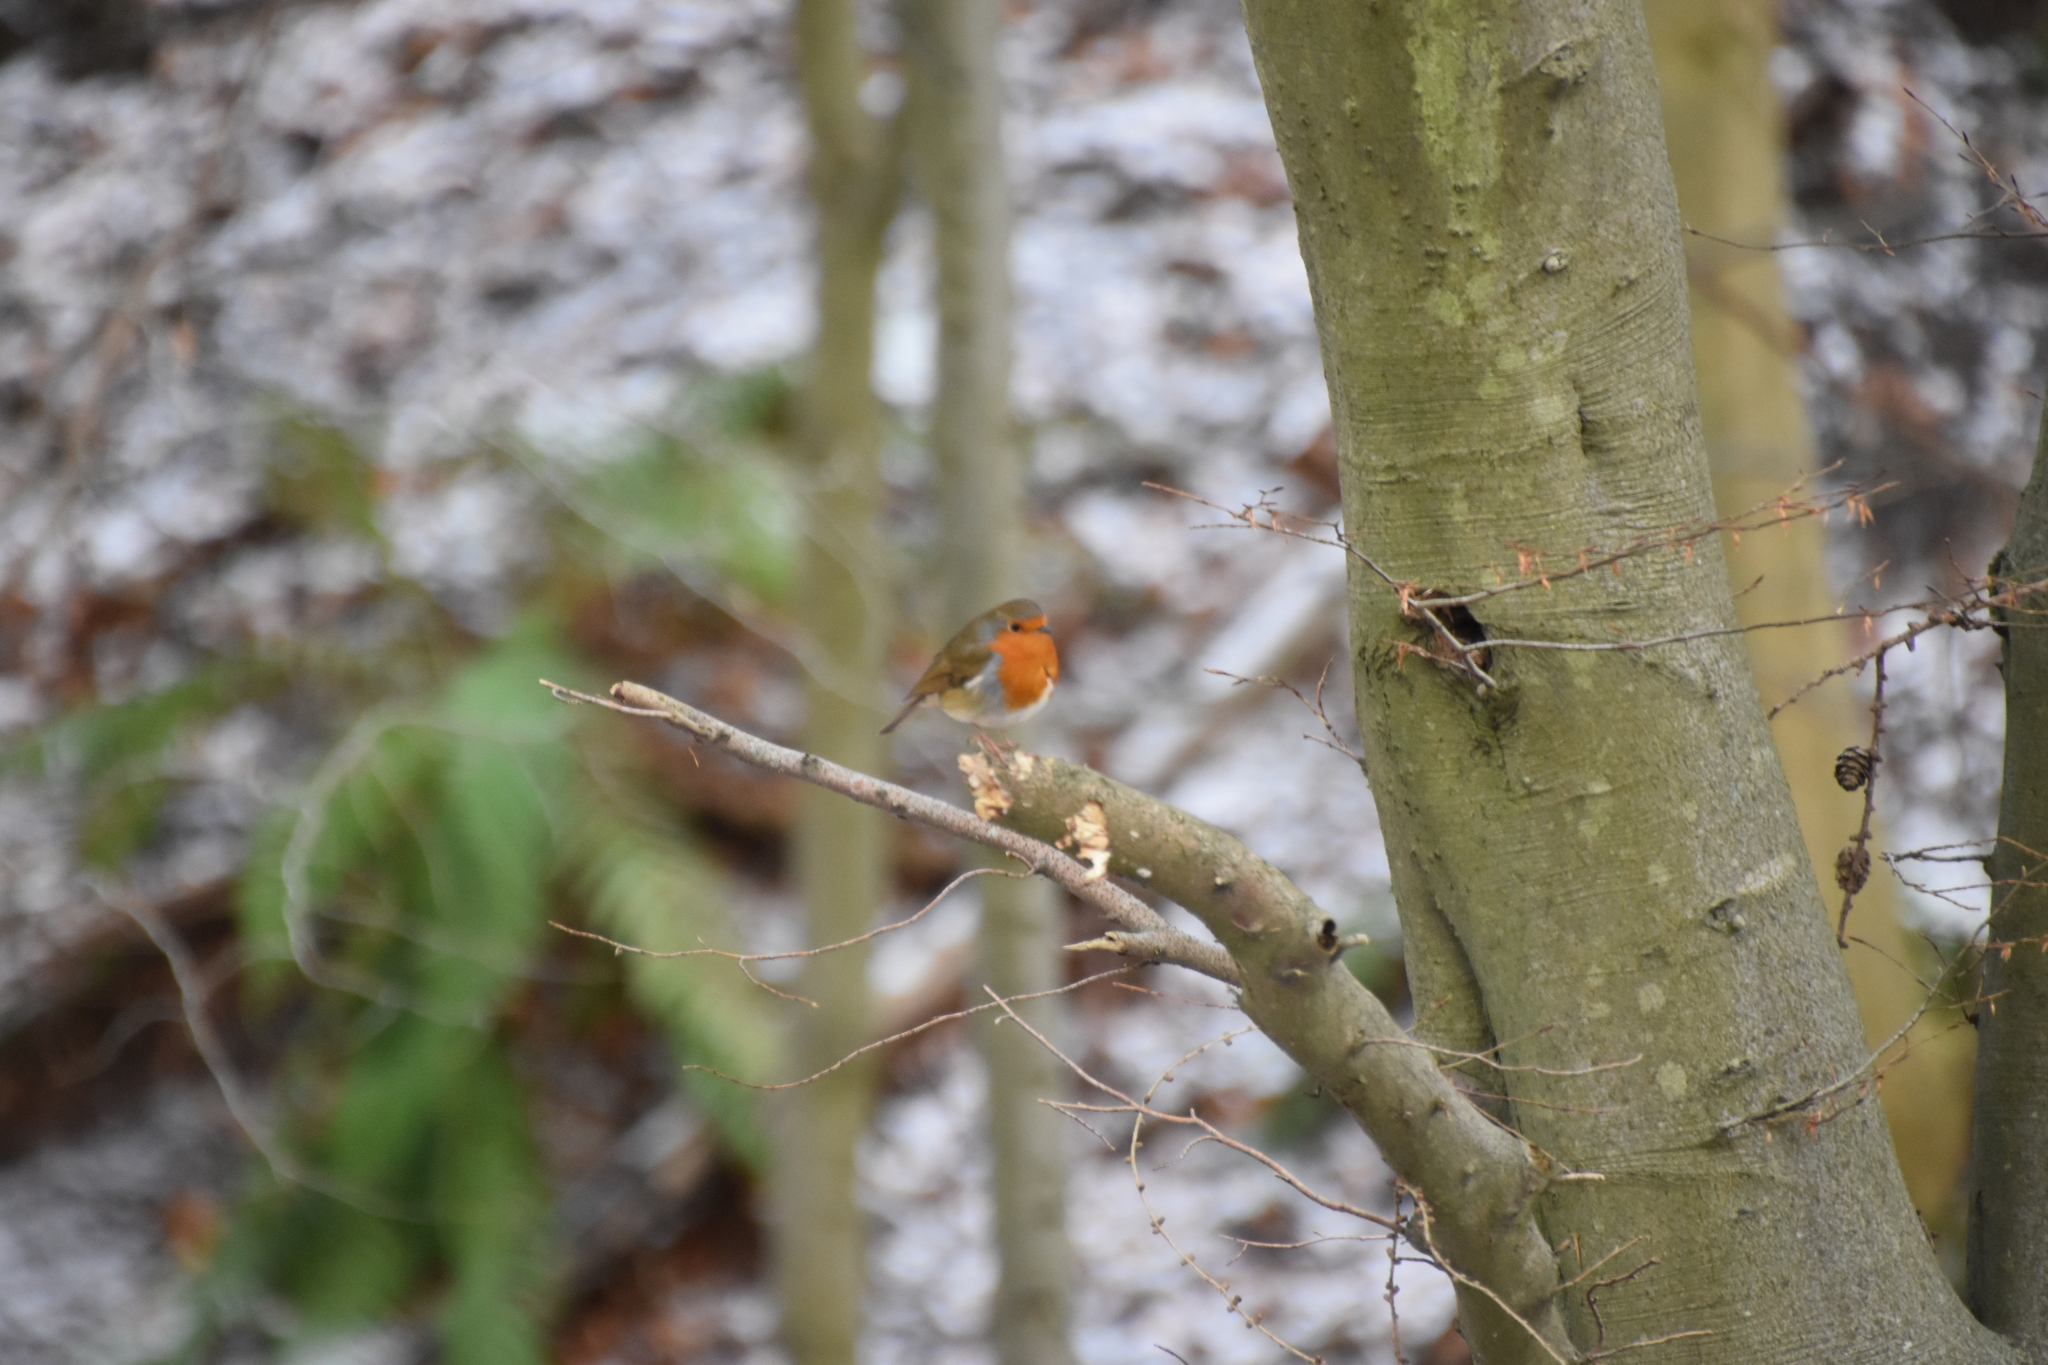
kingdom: Animalia
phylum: Chordata
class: Aves
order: Passeriformes
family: Muscicapidae
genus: Erithacus
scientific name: Erithacus rubecula
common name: European robin
